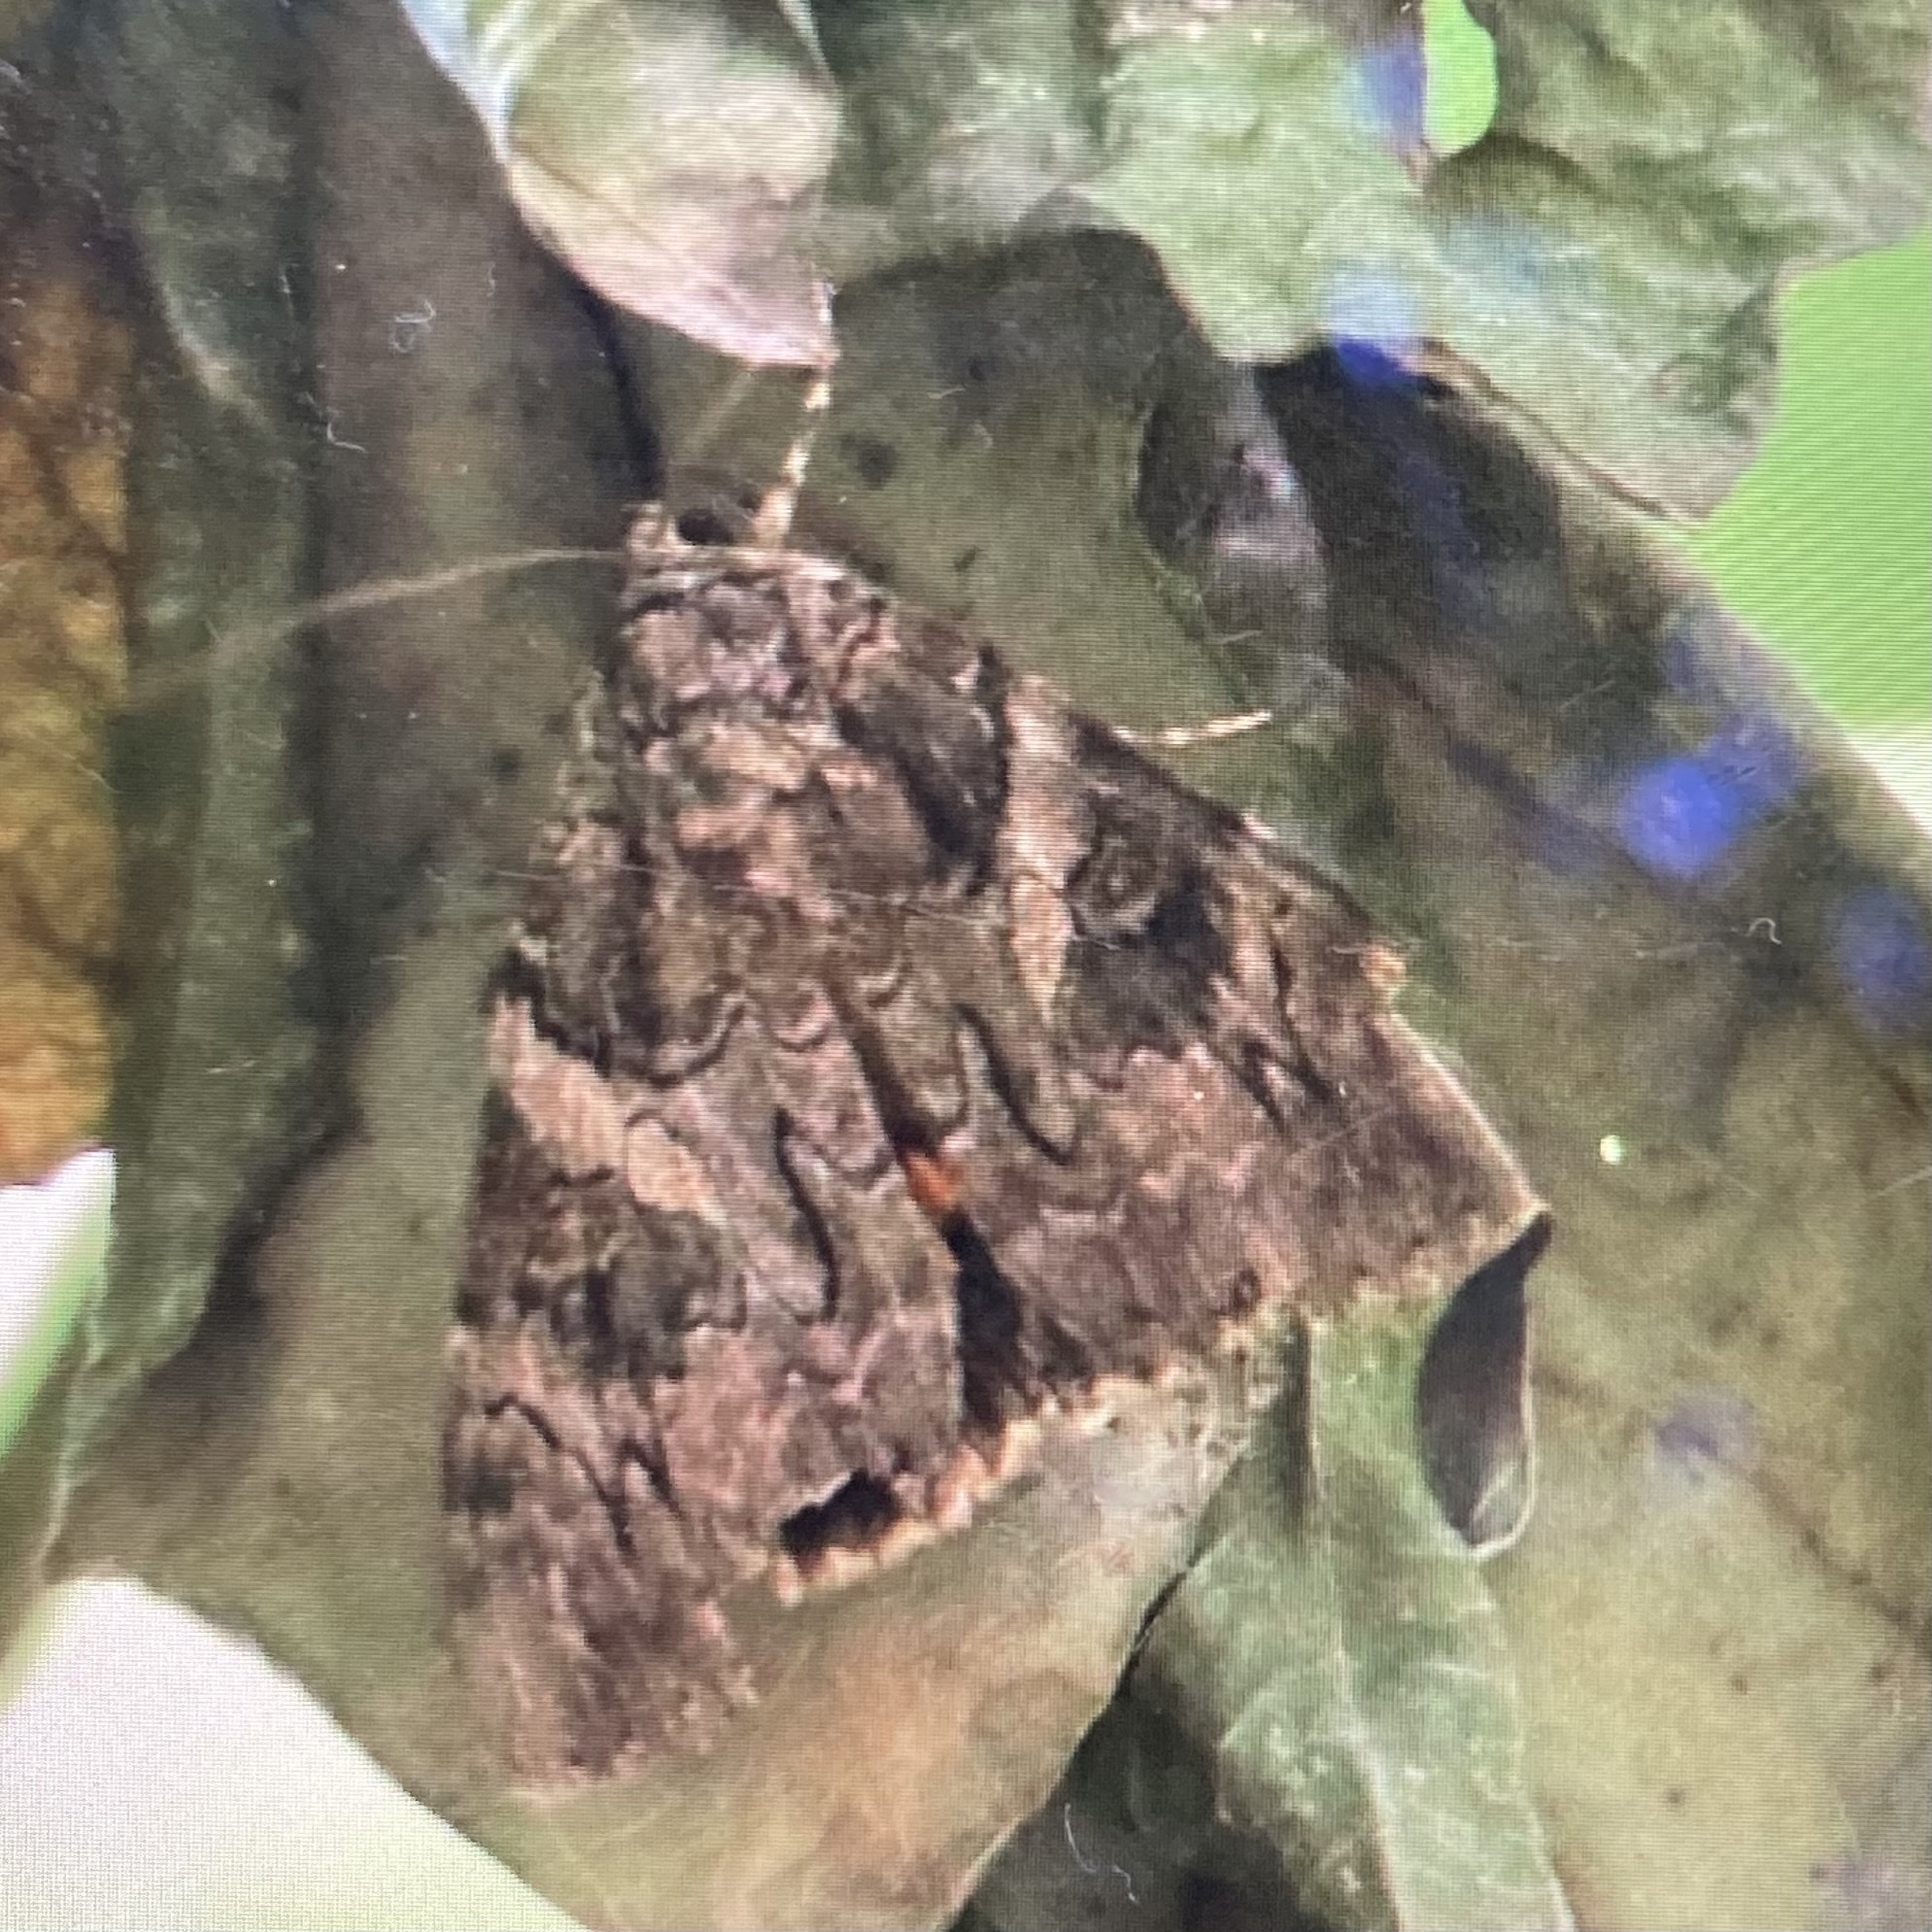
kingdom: Animalia
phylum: Arthropoda
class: Insecta
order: Lepidoptera
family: Erebidae
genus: Catocala
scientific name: Catocala piatrix
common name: The penitent underwing
